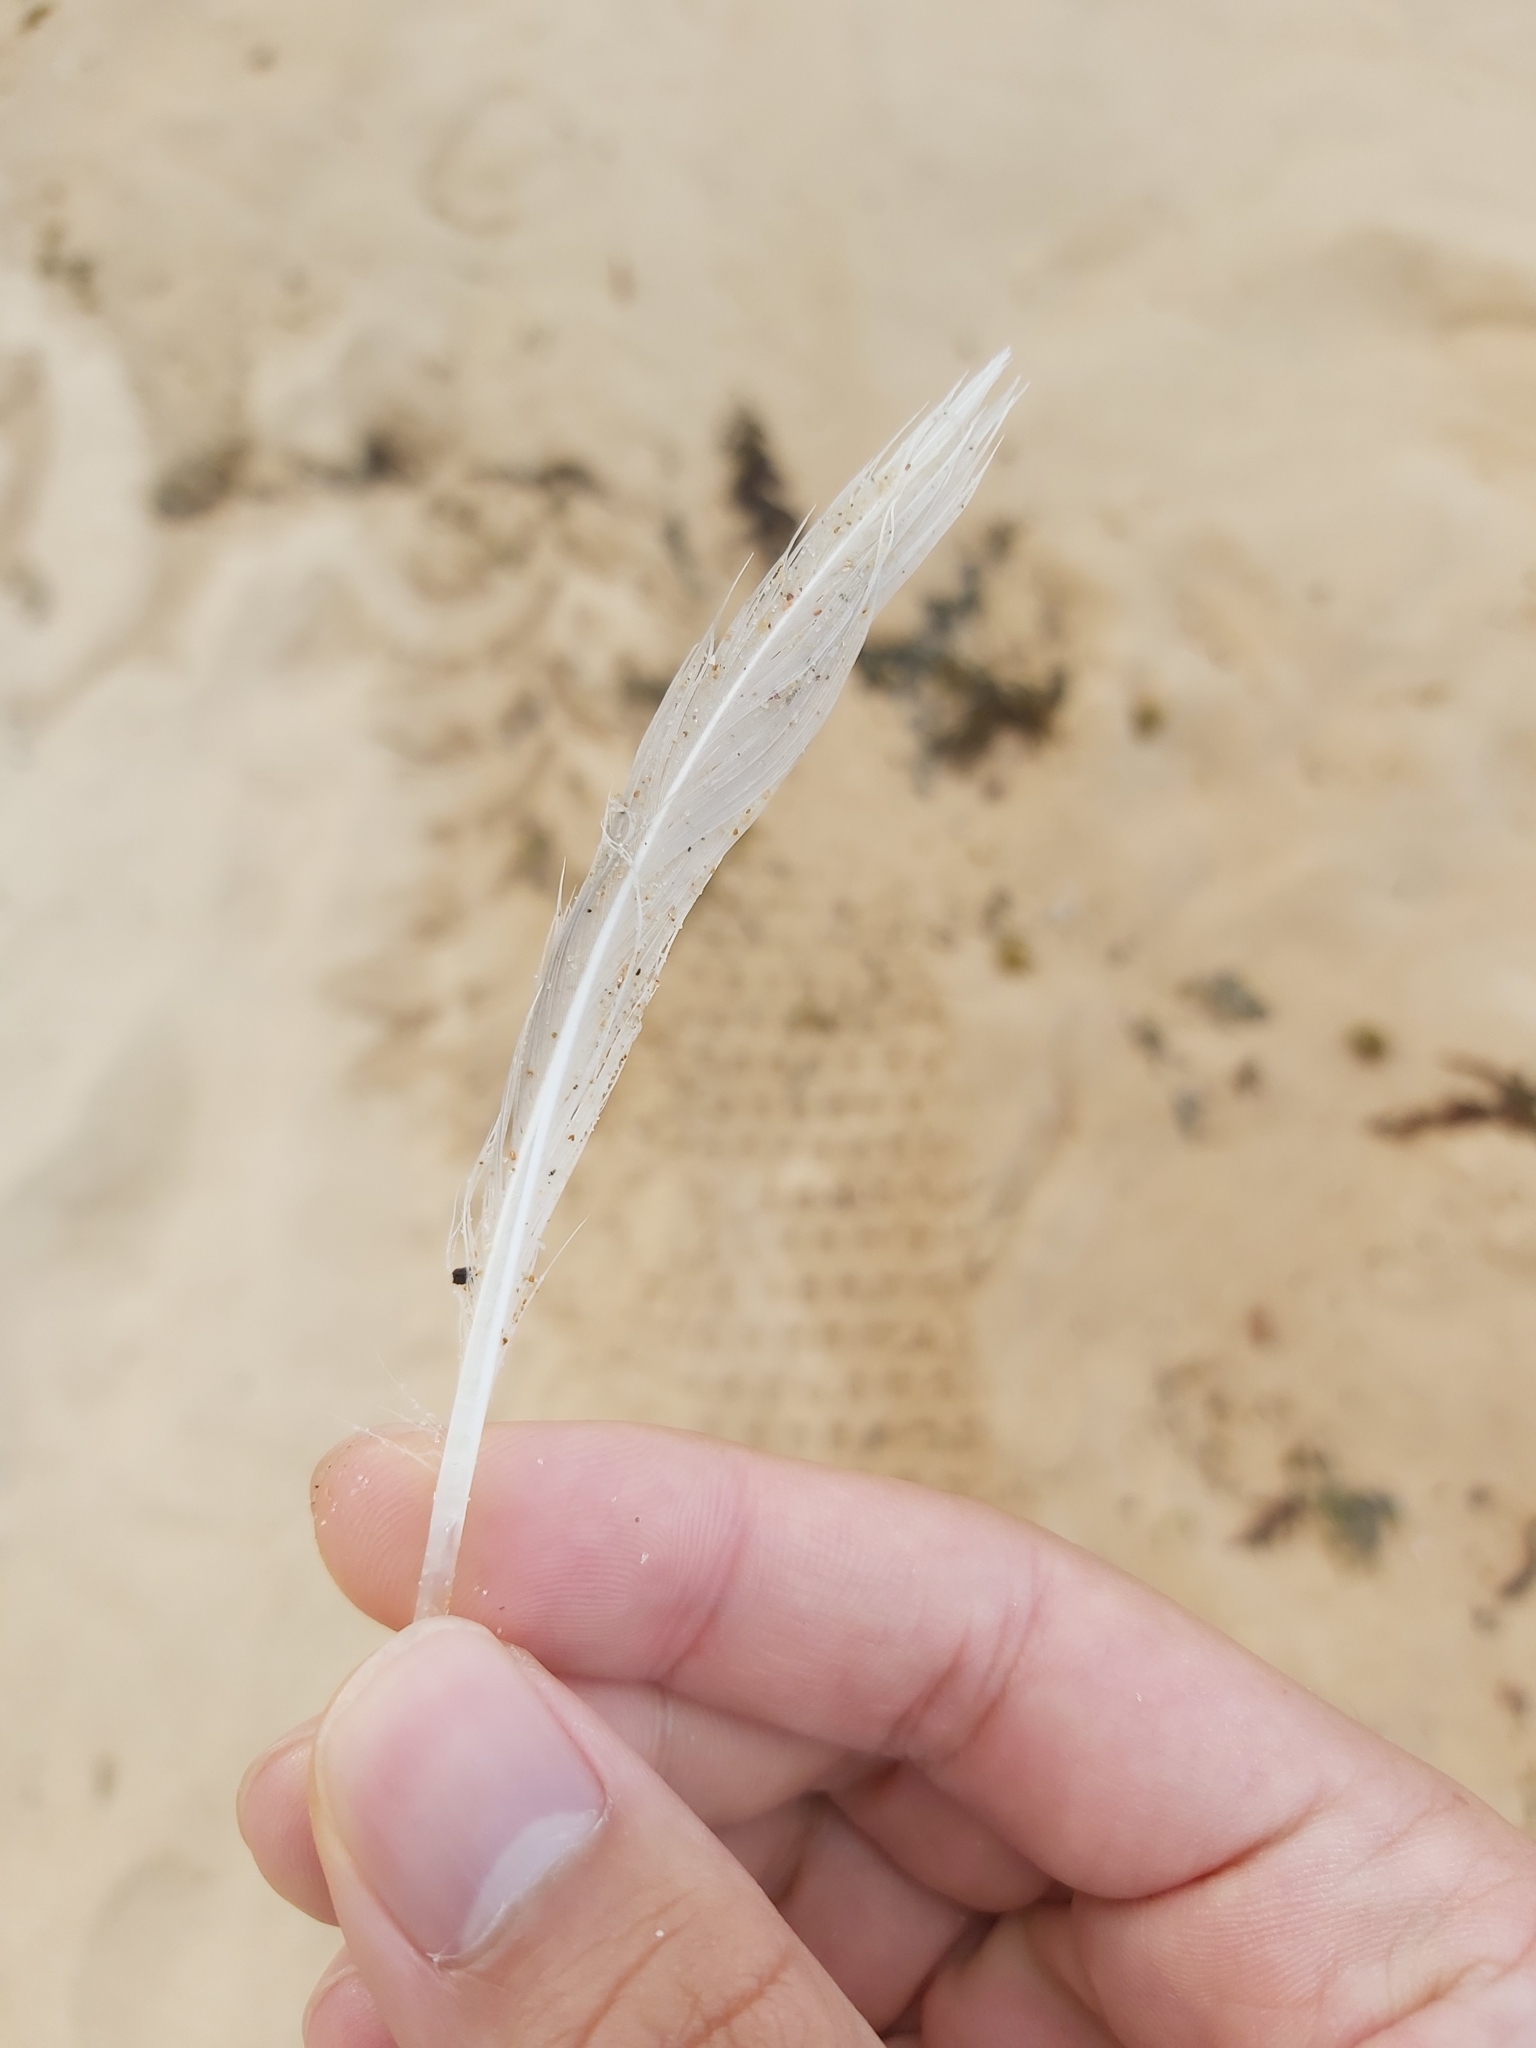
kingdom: Animalia
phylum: Chordata
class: Aves
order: Charadriiformes
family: Laridae
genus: Chroicocephalus
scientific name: Chroicocephalus novaehollandiae
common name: Silver gull
